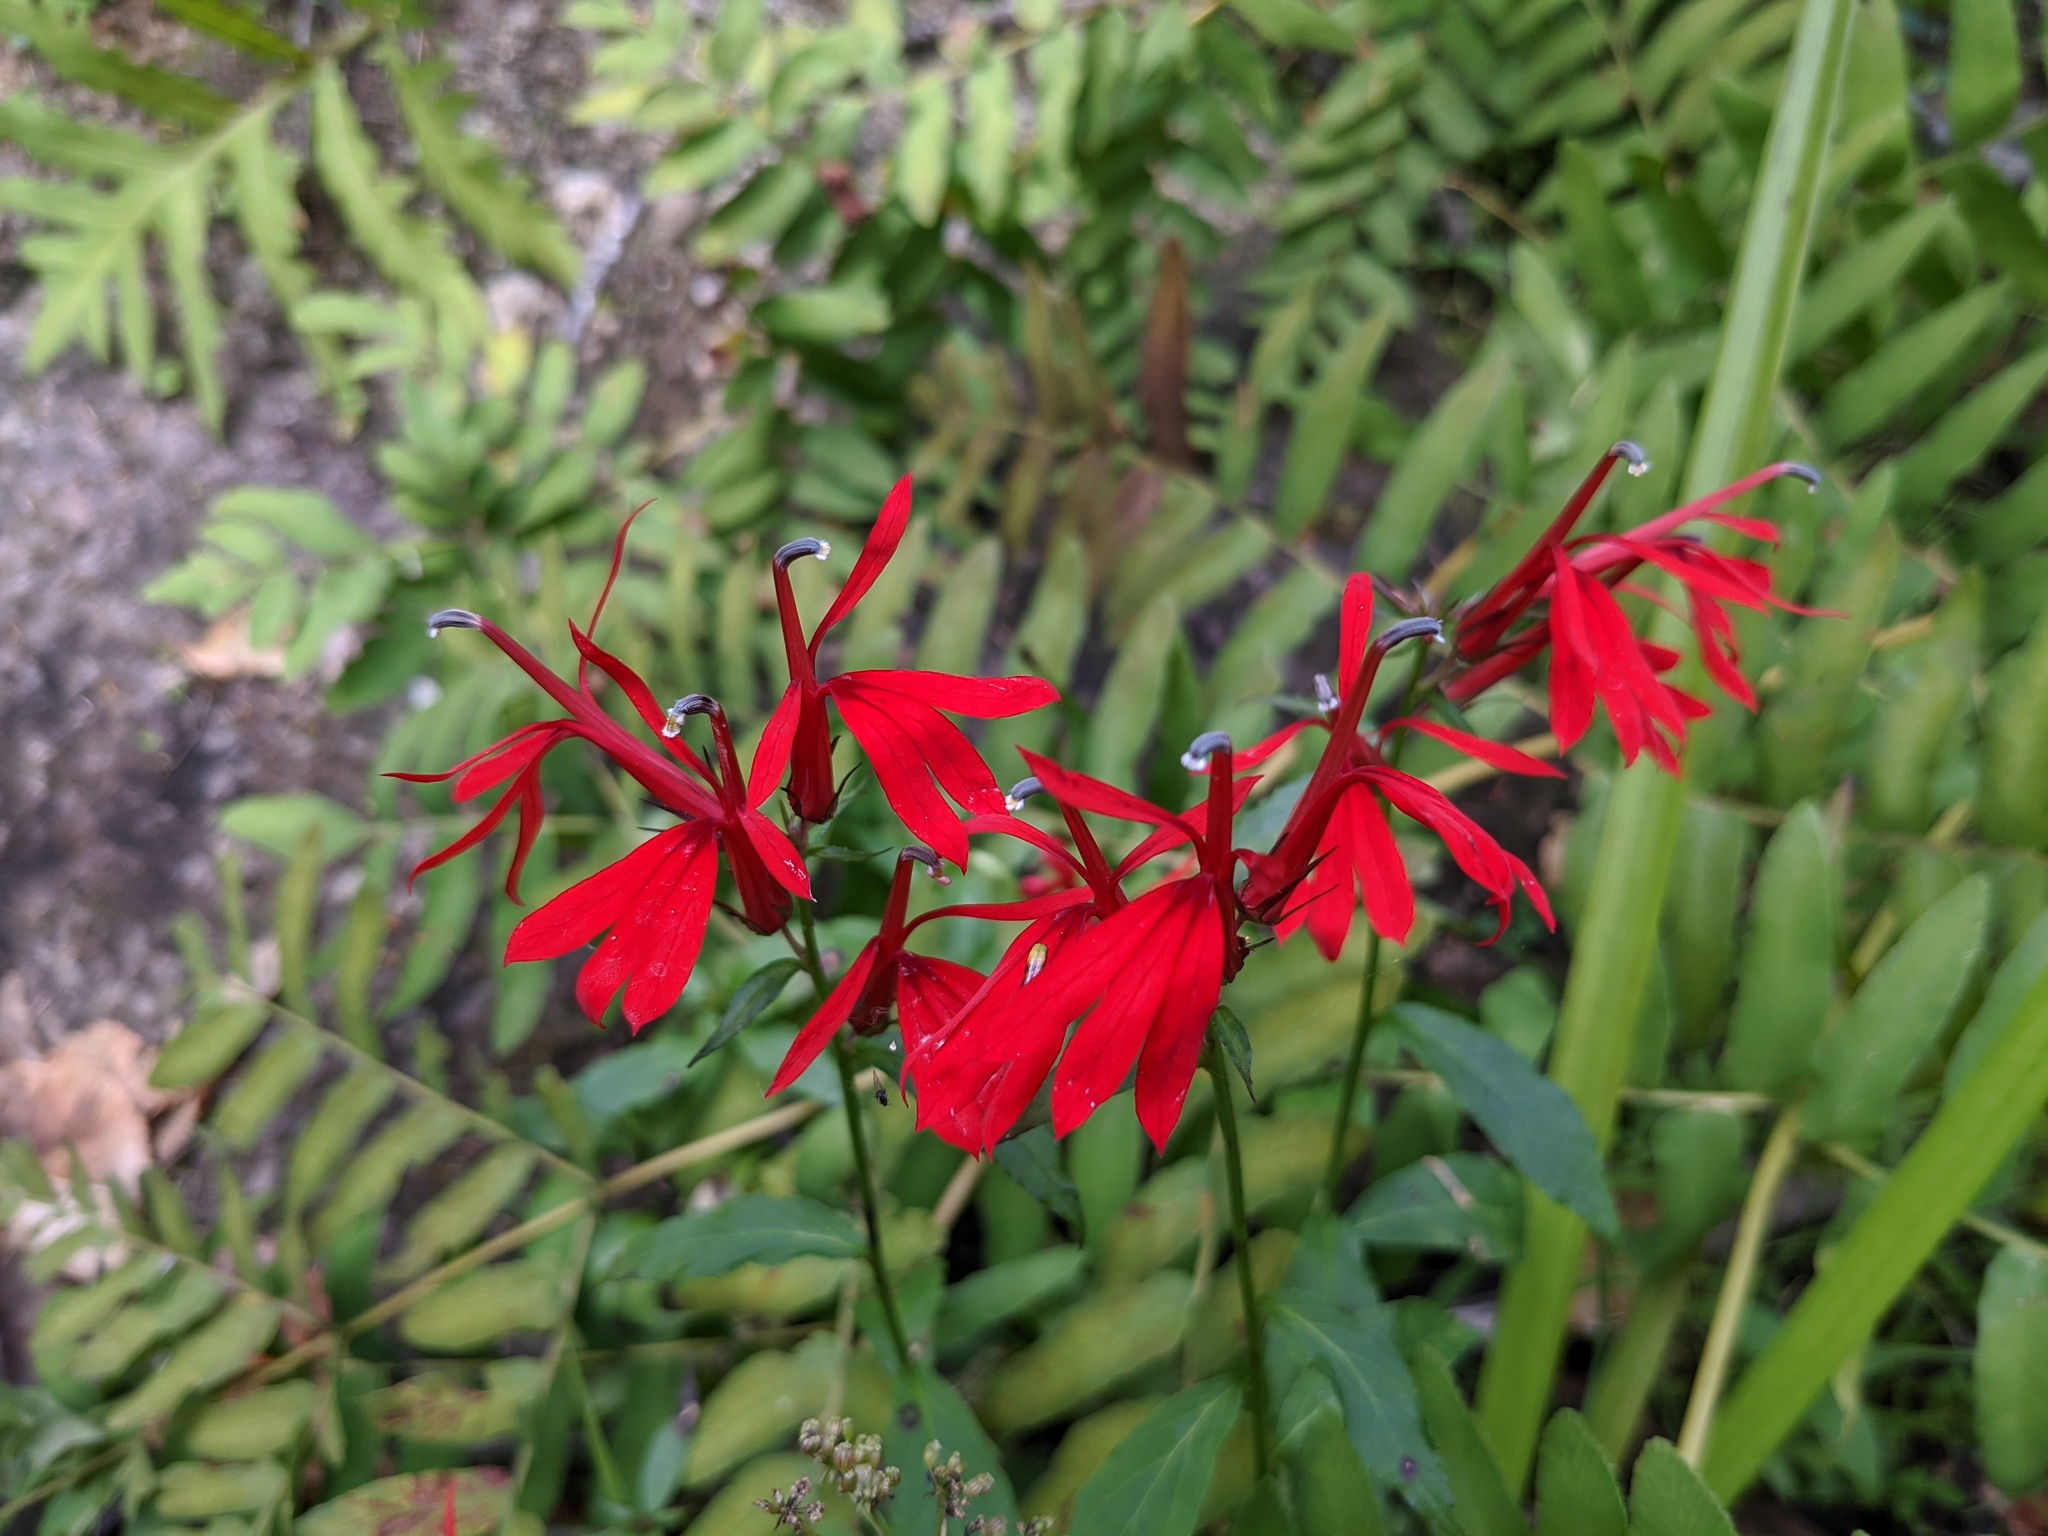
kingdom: Plantae
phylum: Tracheophyta
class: Magnoliopsida
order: Asterales
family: Campanulaceae
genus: Lobelia
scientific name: Lobelia cardinalis
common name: Cardinal flower
